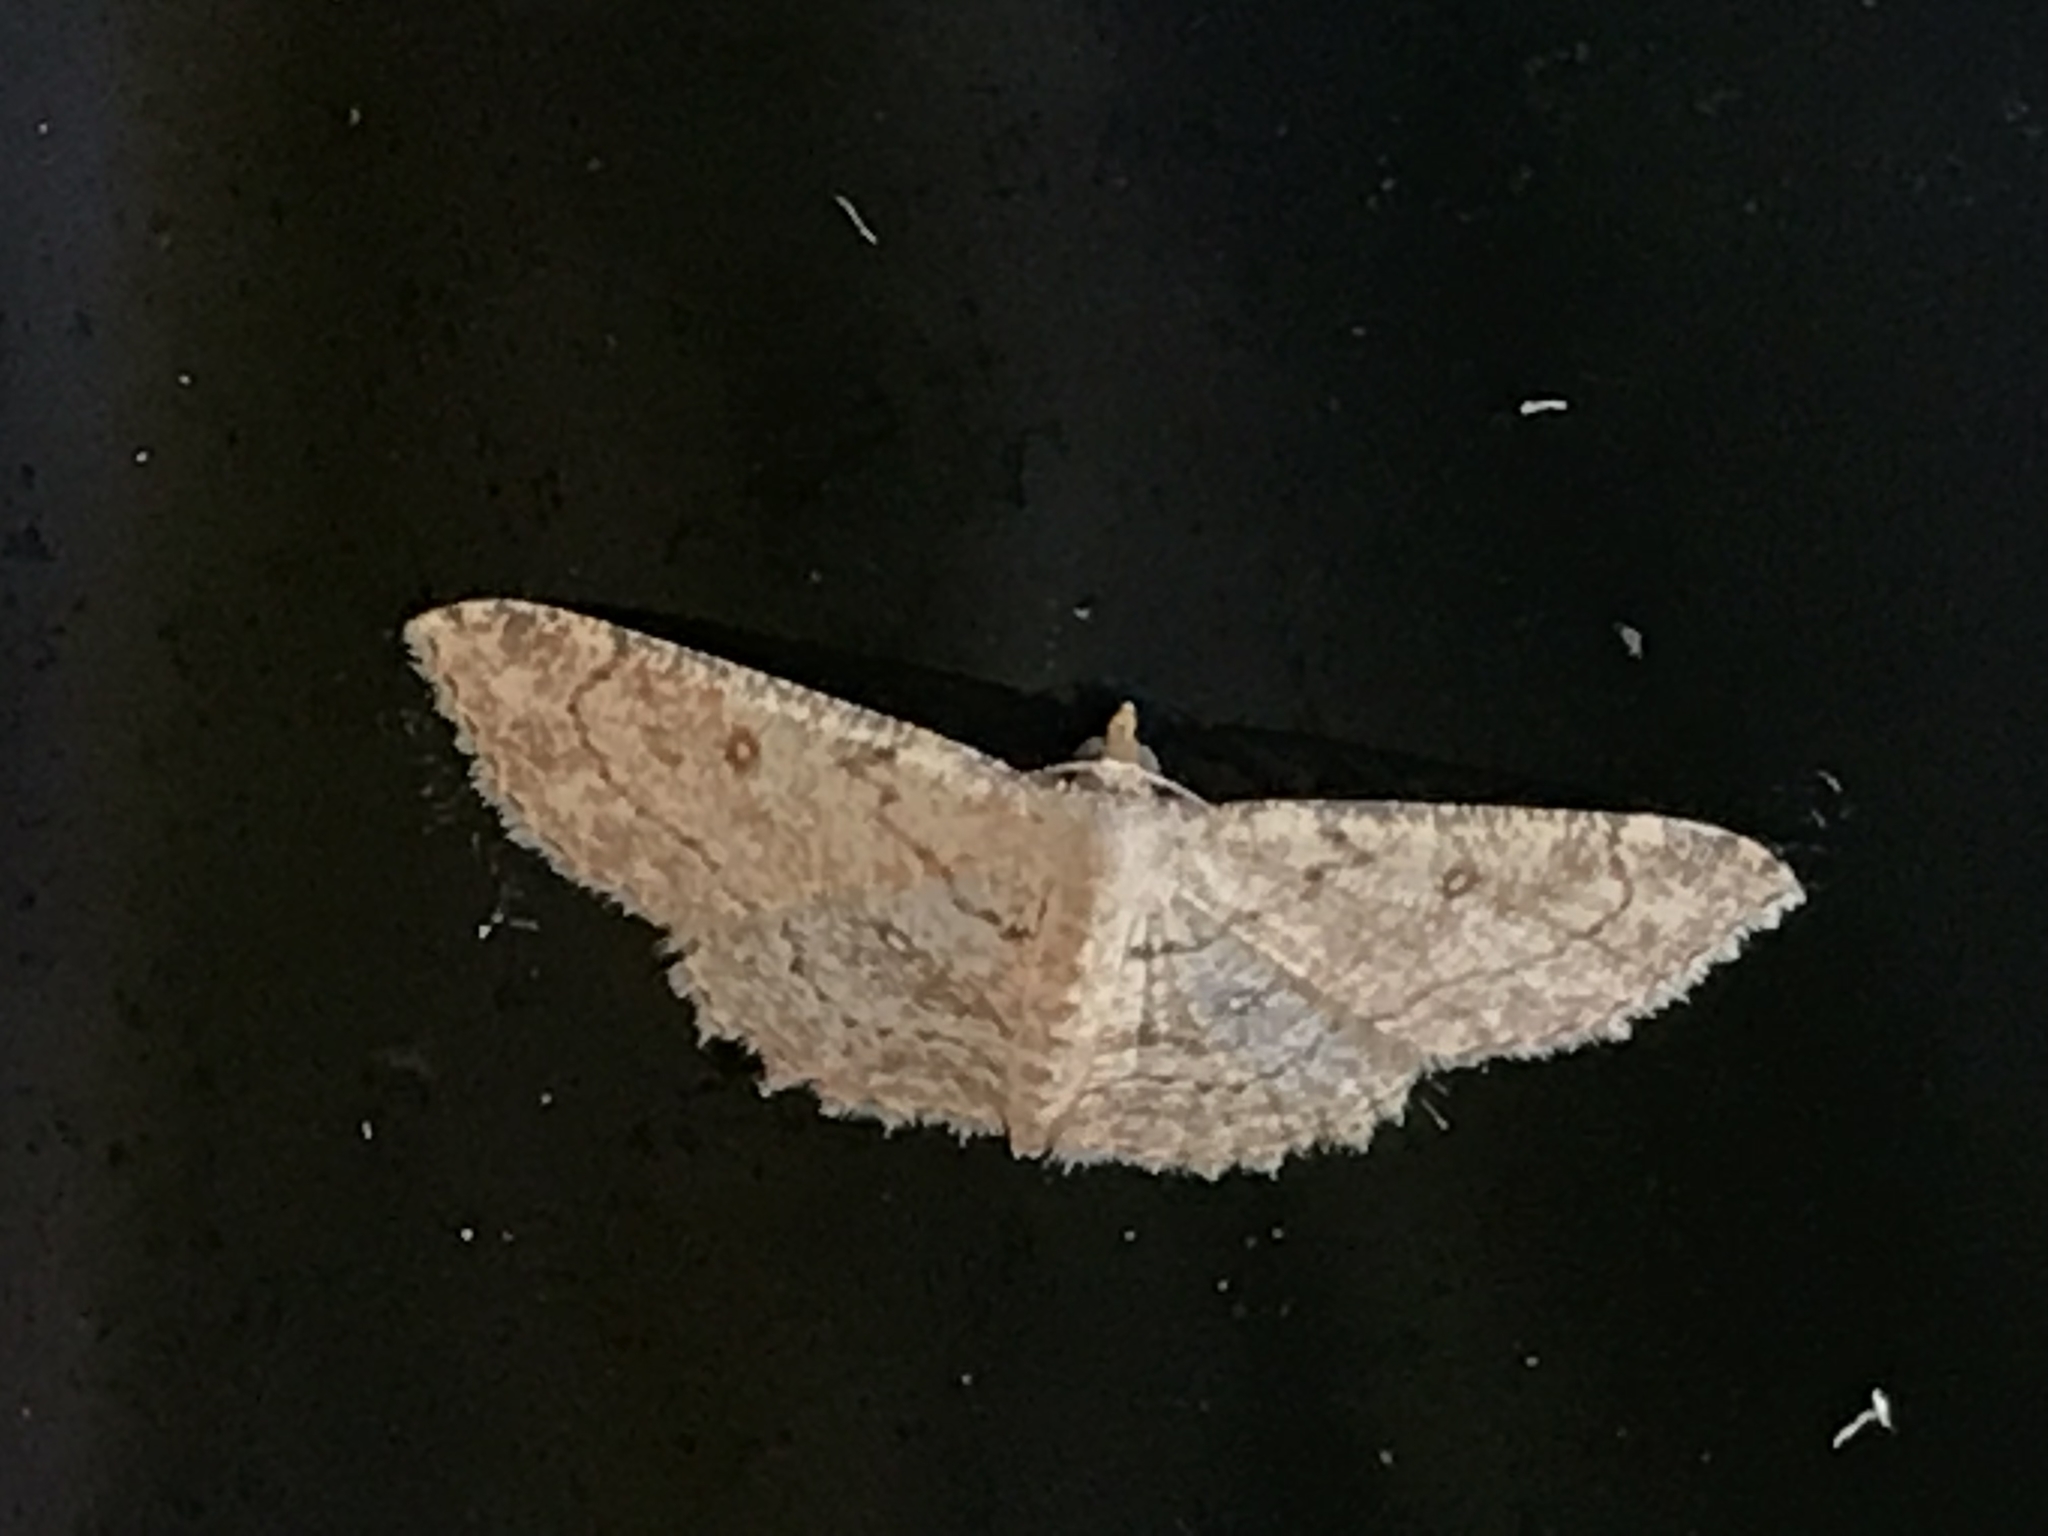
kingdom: Animalia
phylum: Arthropoda
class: Insecta
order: Lepidoptera
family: Geometridae
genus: Cyclophora
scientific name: Cyclophora nanaria
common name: Cankerworm
